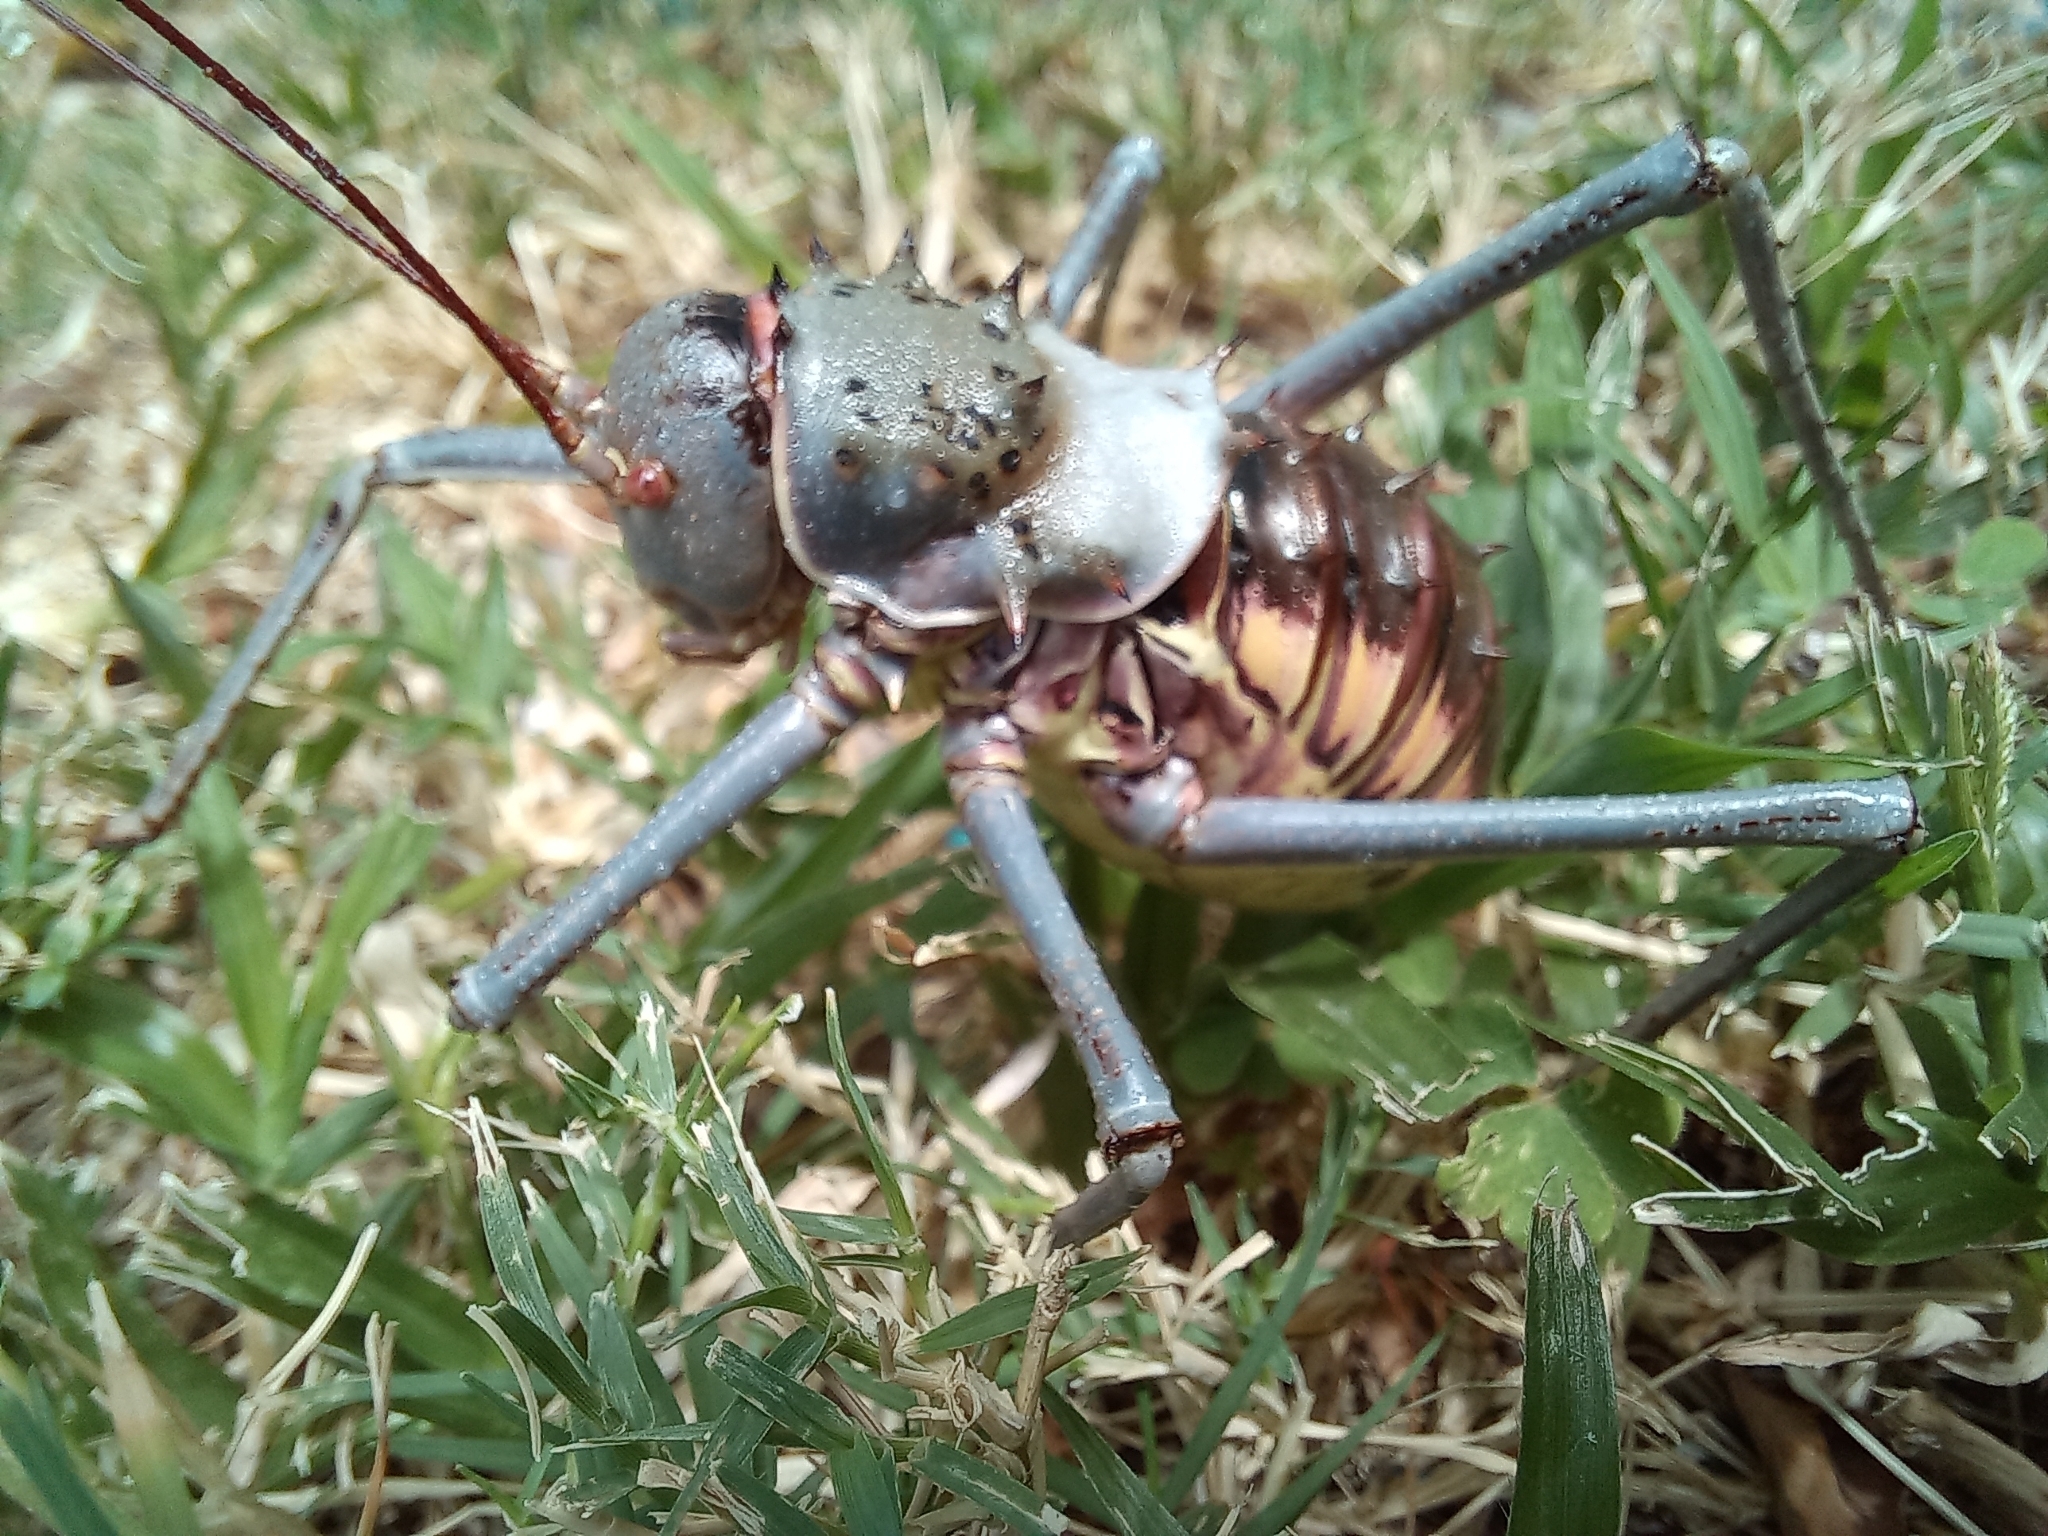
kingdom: Animalia
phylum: Arthropoda
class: Insecta
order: Orthoptera
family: Tettigoniidae
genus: Acanthoplus
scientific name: Acanthoplus discoidalis
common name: Armoured katydid
